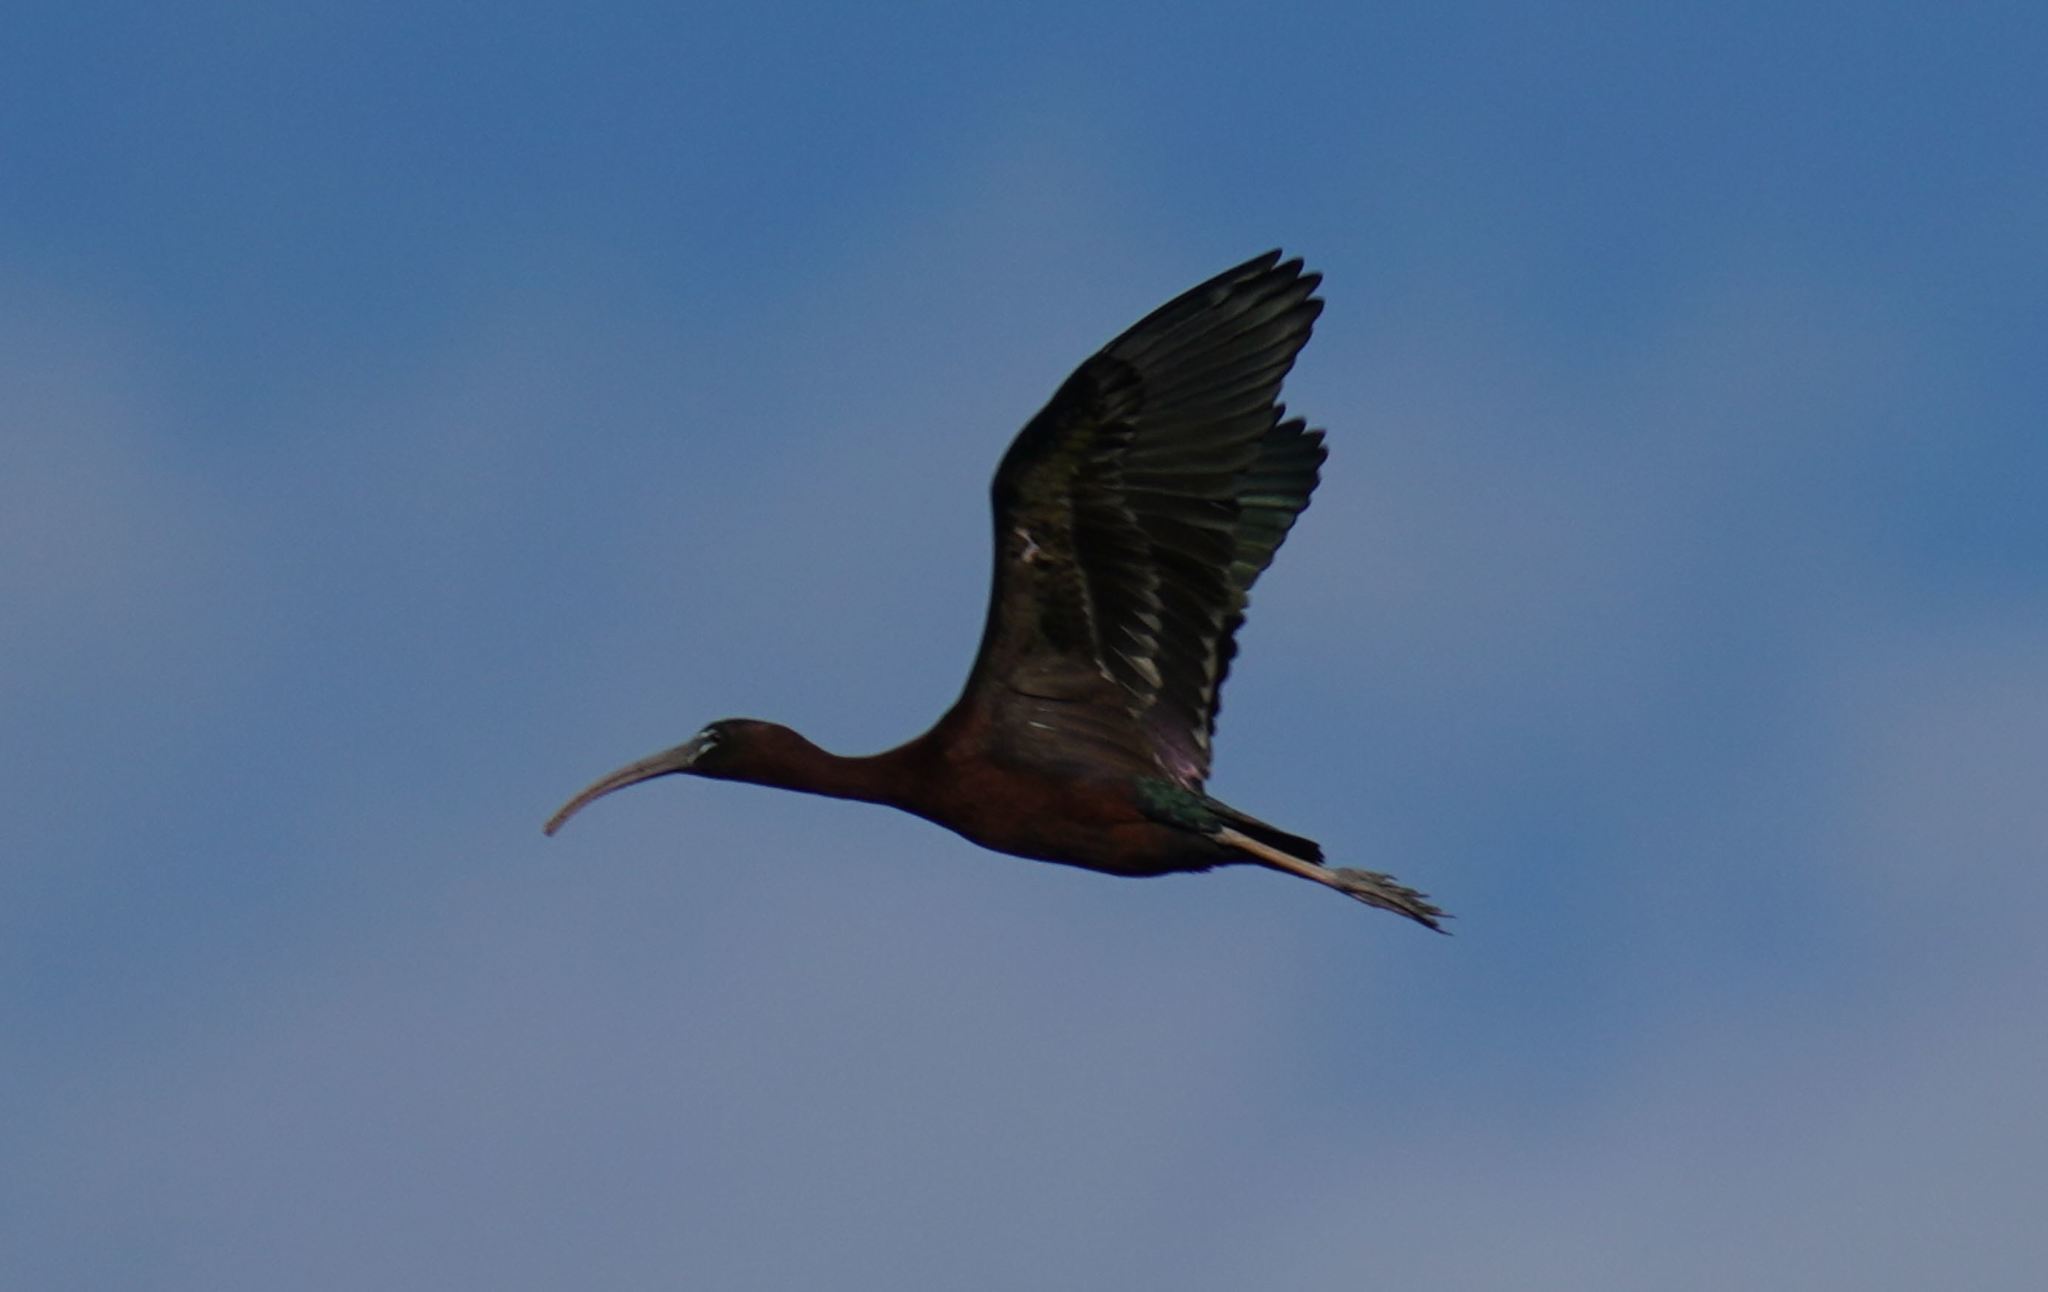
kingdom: Animalia
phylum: Chordata
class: Aves
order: Pelecaniformes
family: Threskiornithidae
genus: Plegadis
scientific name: Plegadis falcinellus
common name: Glossy ibis
